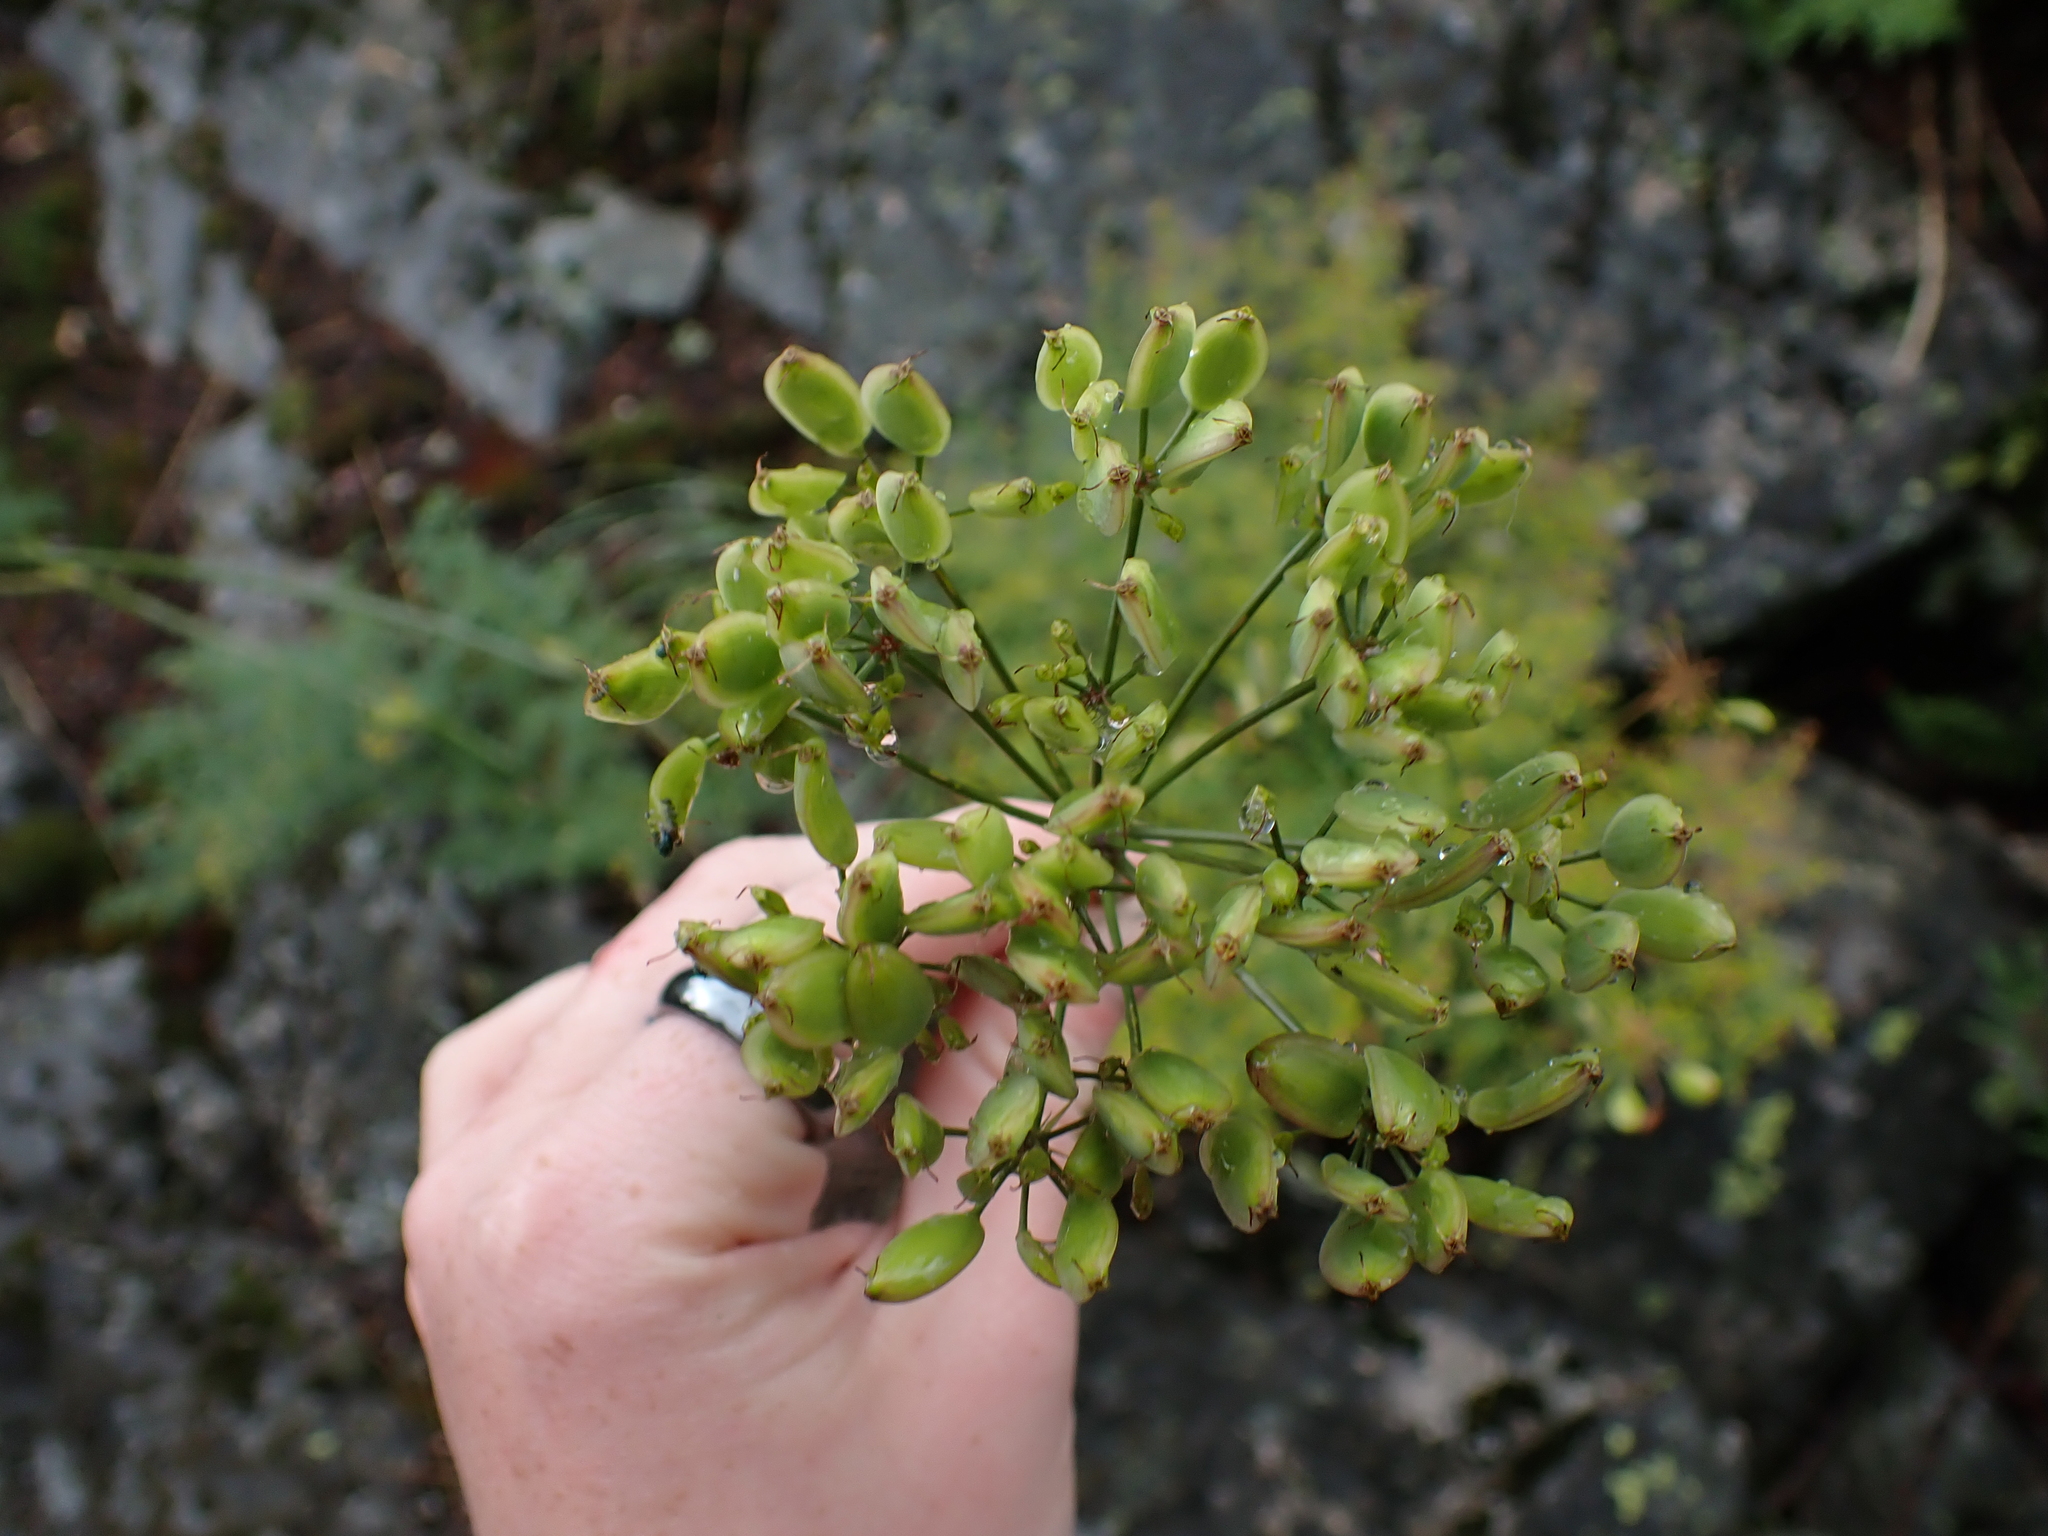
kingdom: Plantae
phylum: Tracheophyta
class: Magnoliopsida
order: Apiales
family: Apiaceae
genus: Lomatium
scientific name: Lomatium multifidum
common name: Carrot-leaved biscuitroot
